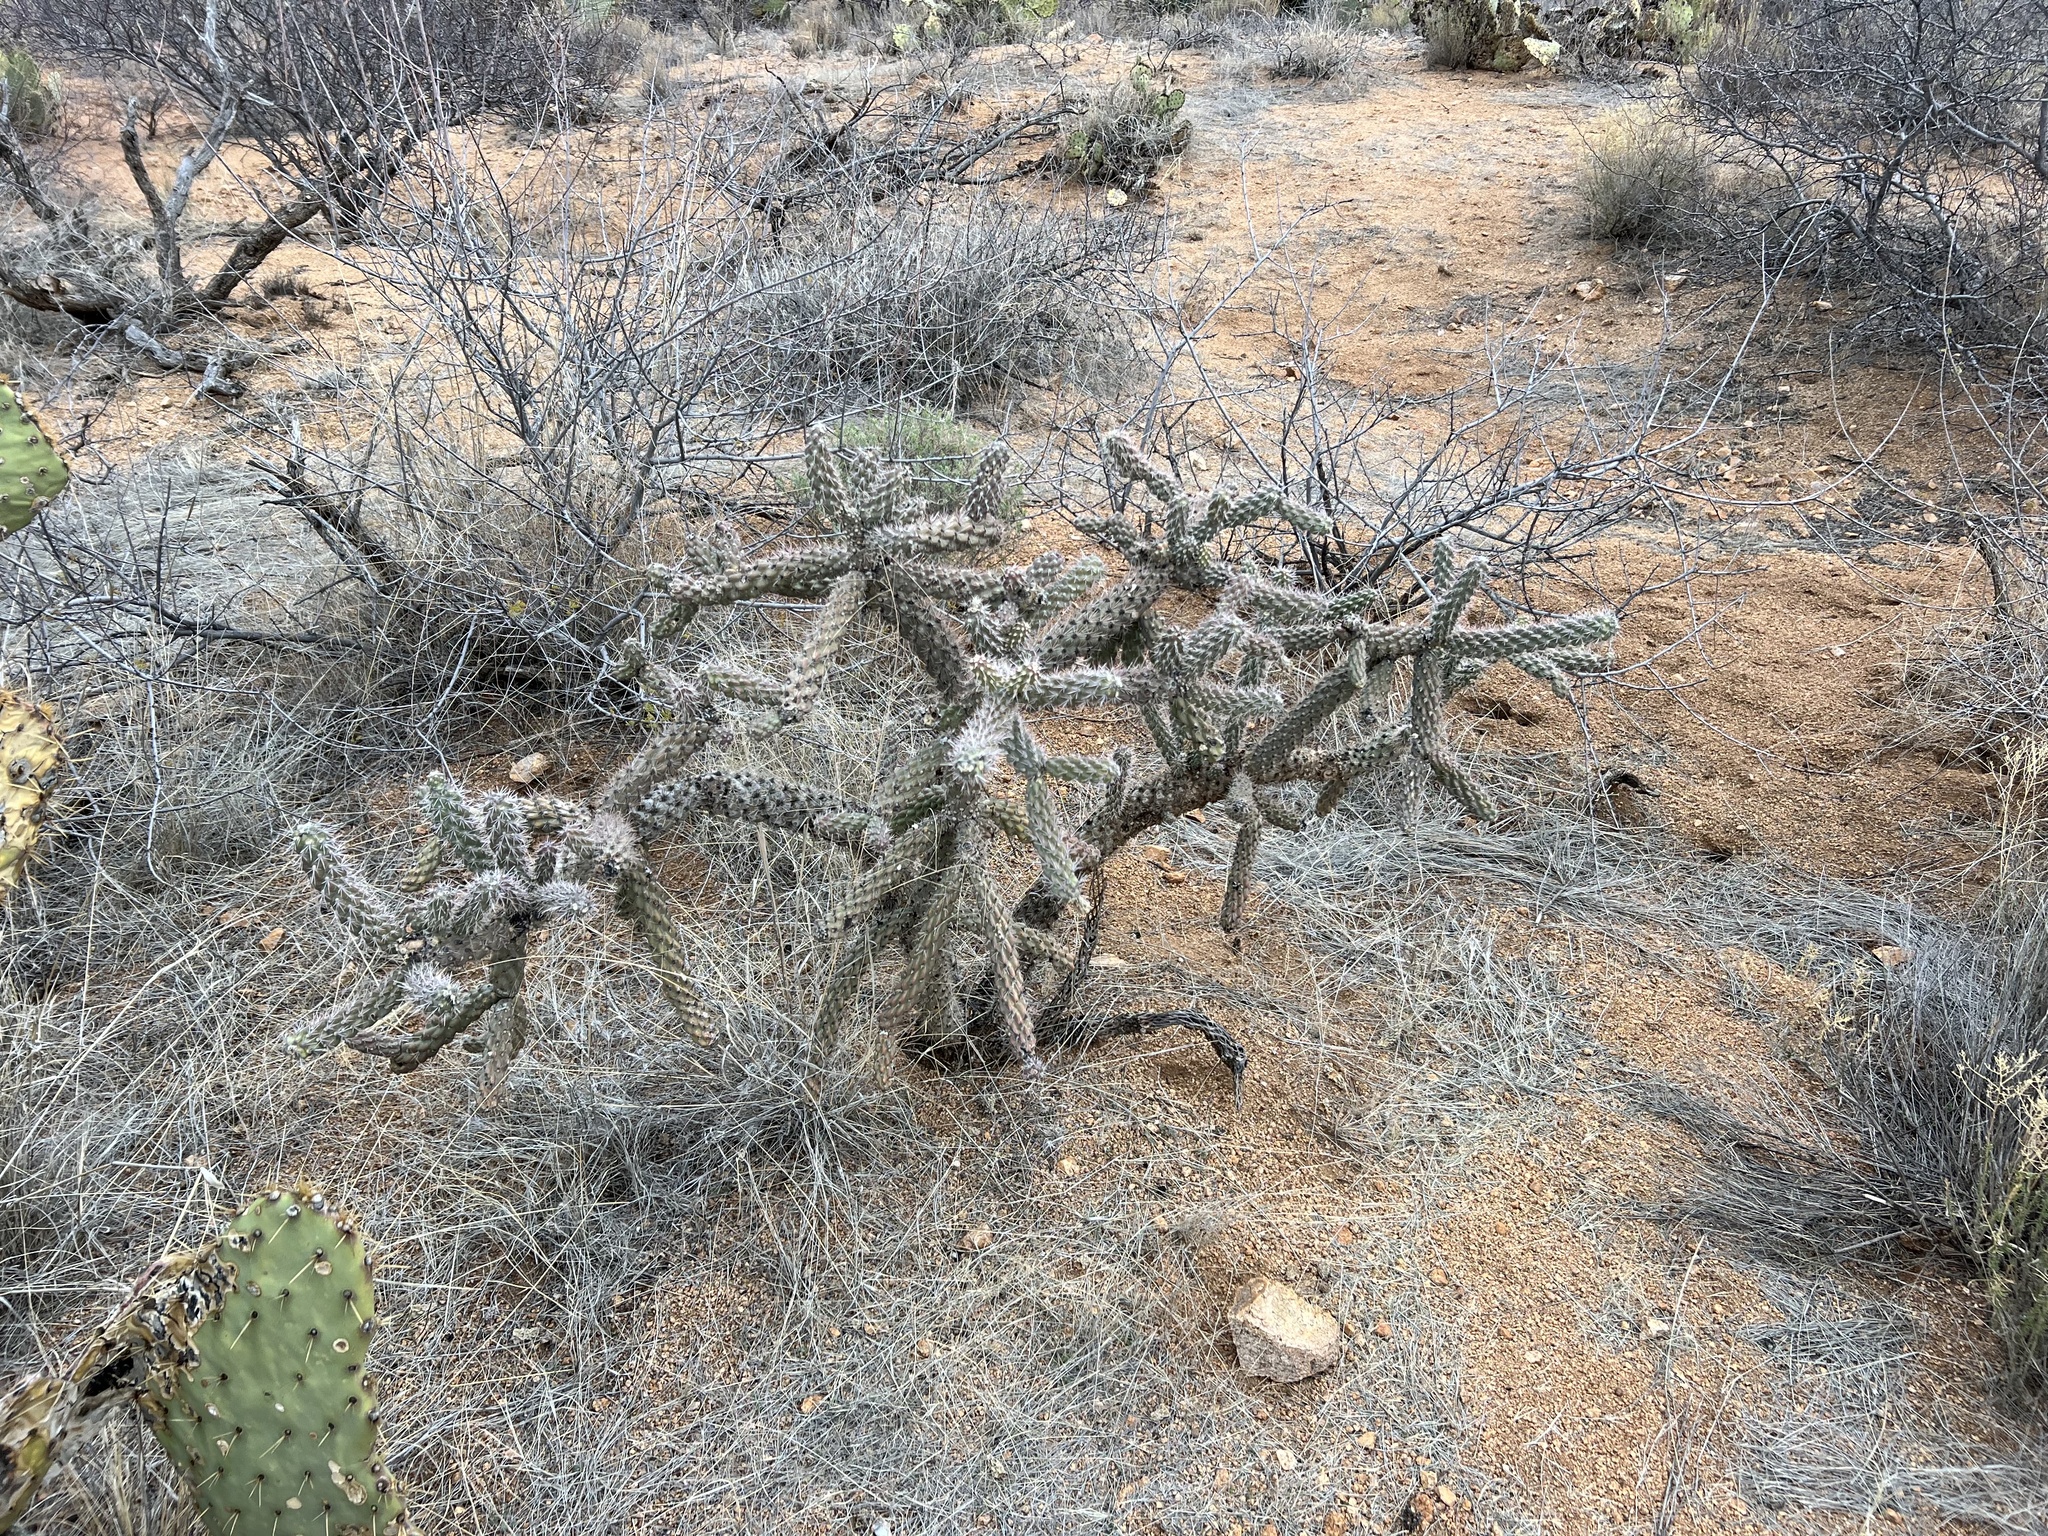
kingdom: Plantae
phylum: Tracheophyta
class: Magnoliopsida
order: Caryophyllales
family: Cactaceae
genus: Cylindropuntia
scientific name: Cylindropuntia imbricata
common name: Candelabrum cactus
